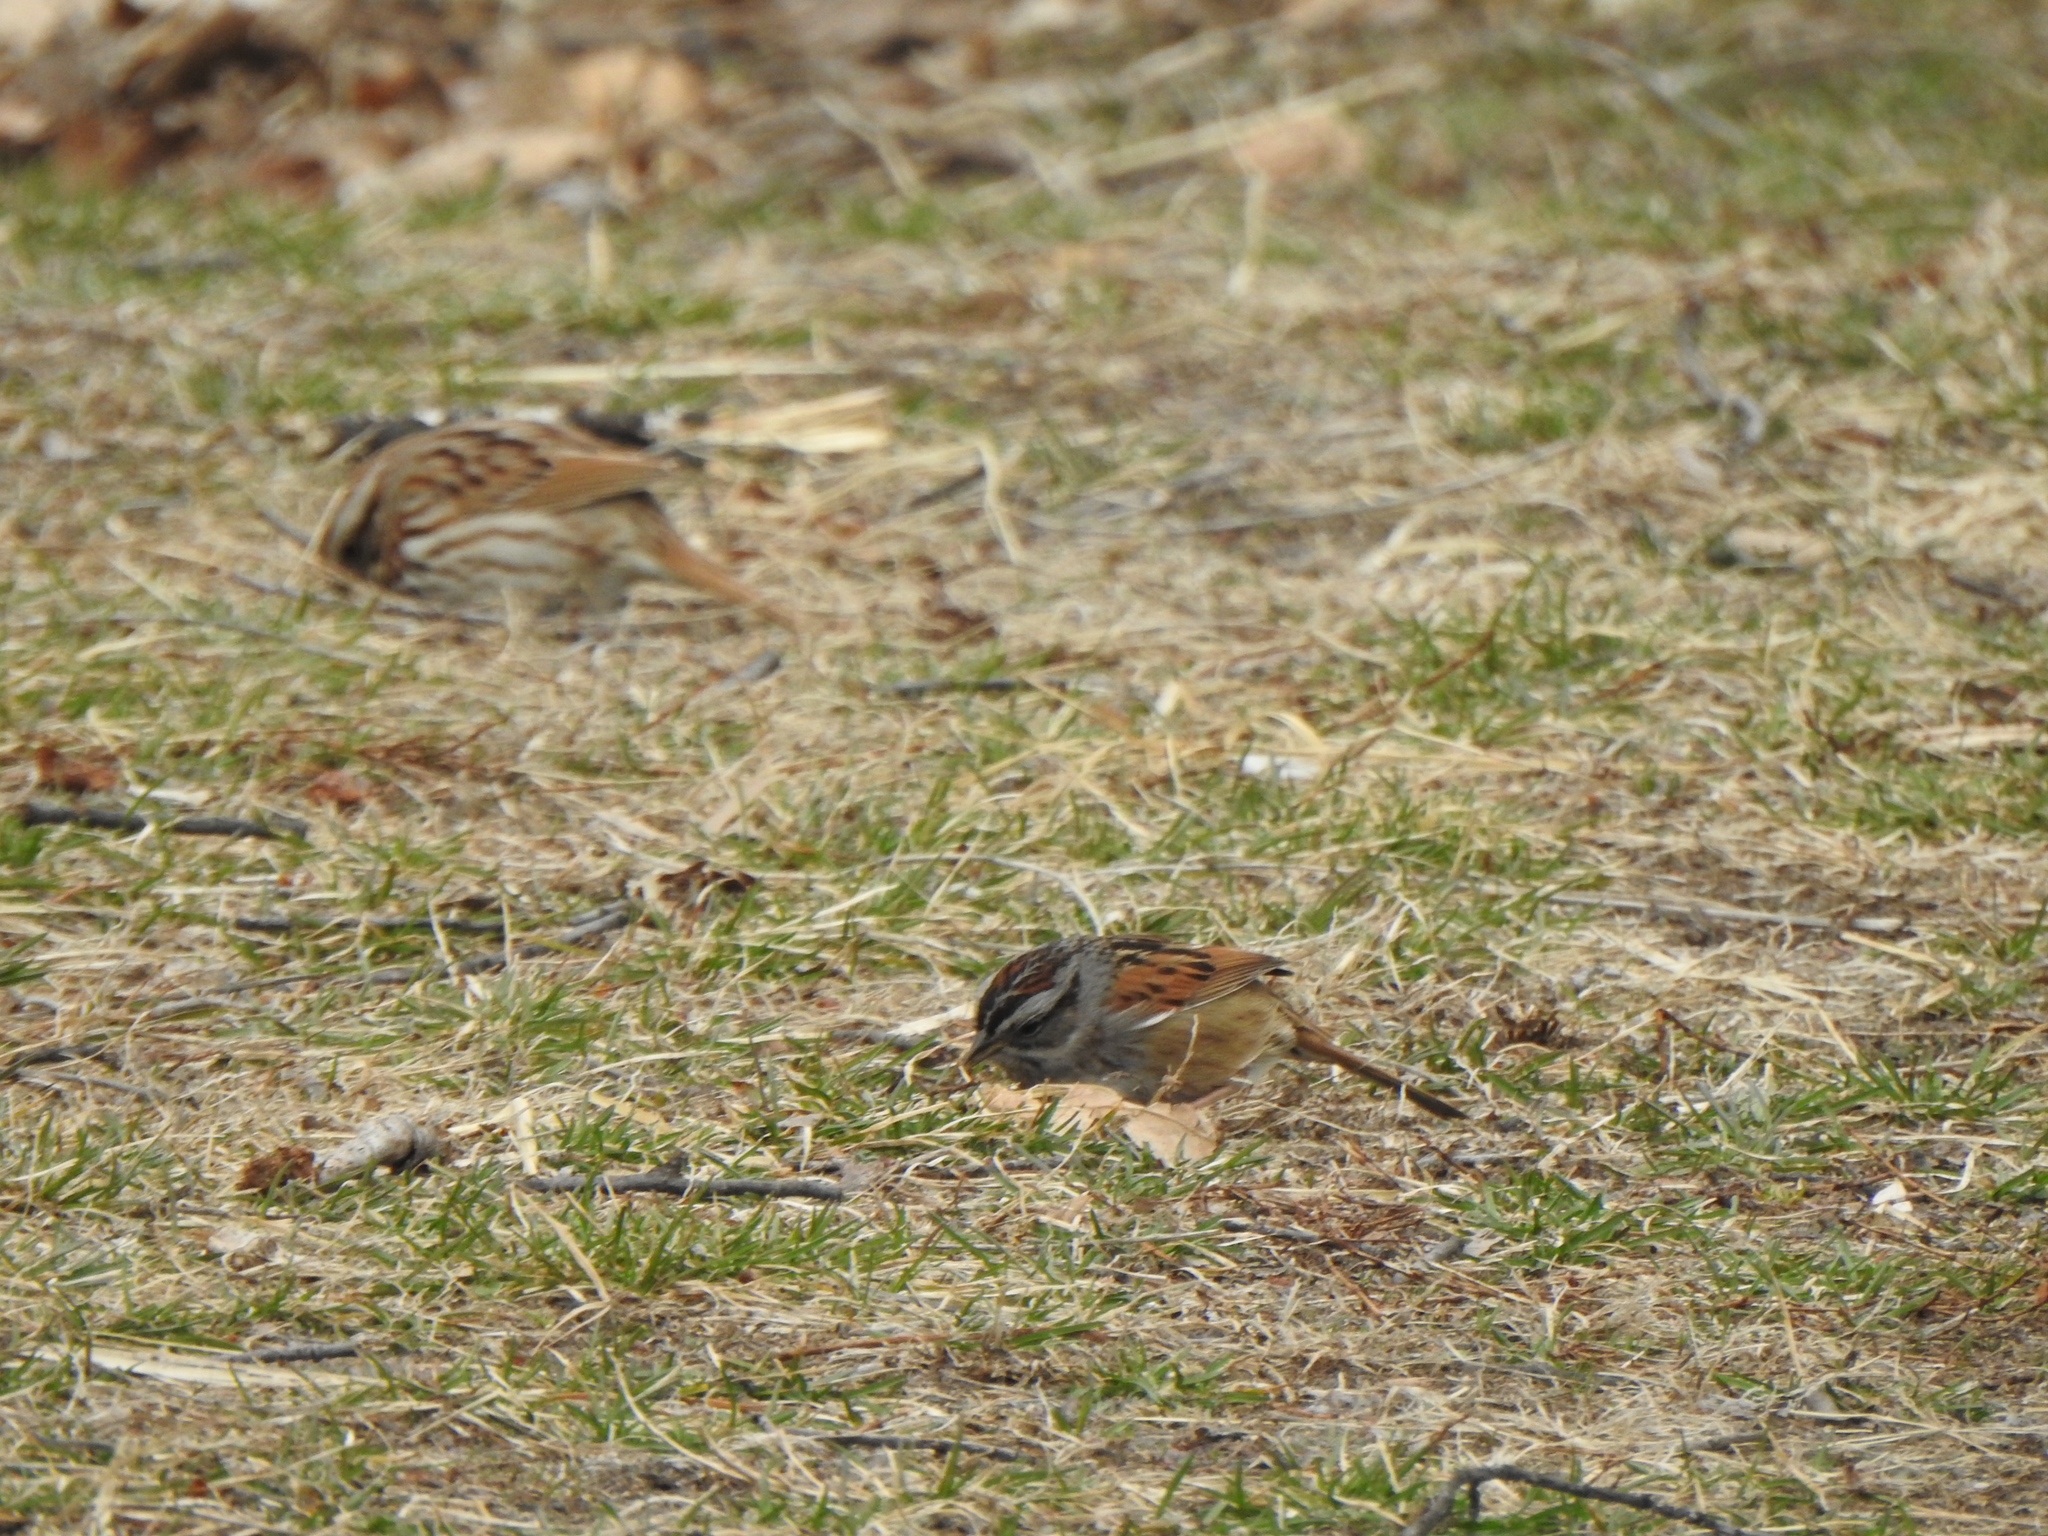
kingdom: Animalia
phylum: Chordata
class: Aves
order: Passeriformes
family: Passerellidae
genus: Melospiza
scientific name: Melospiza georgiana
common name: Swamp sparrow
